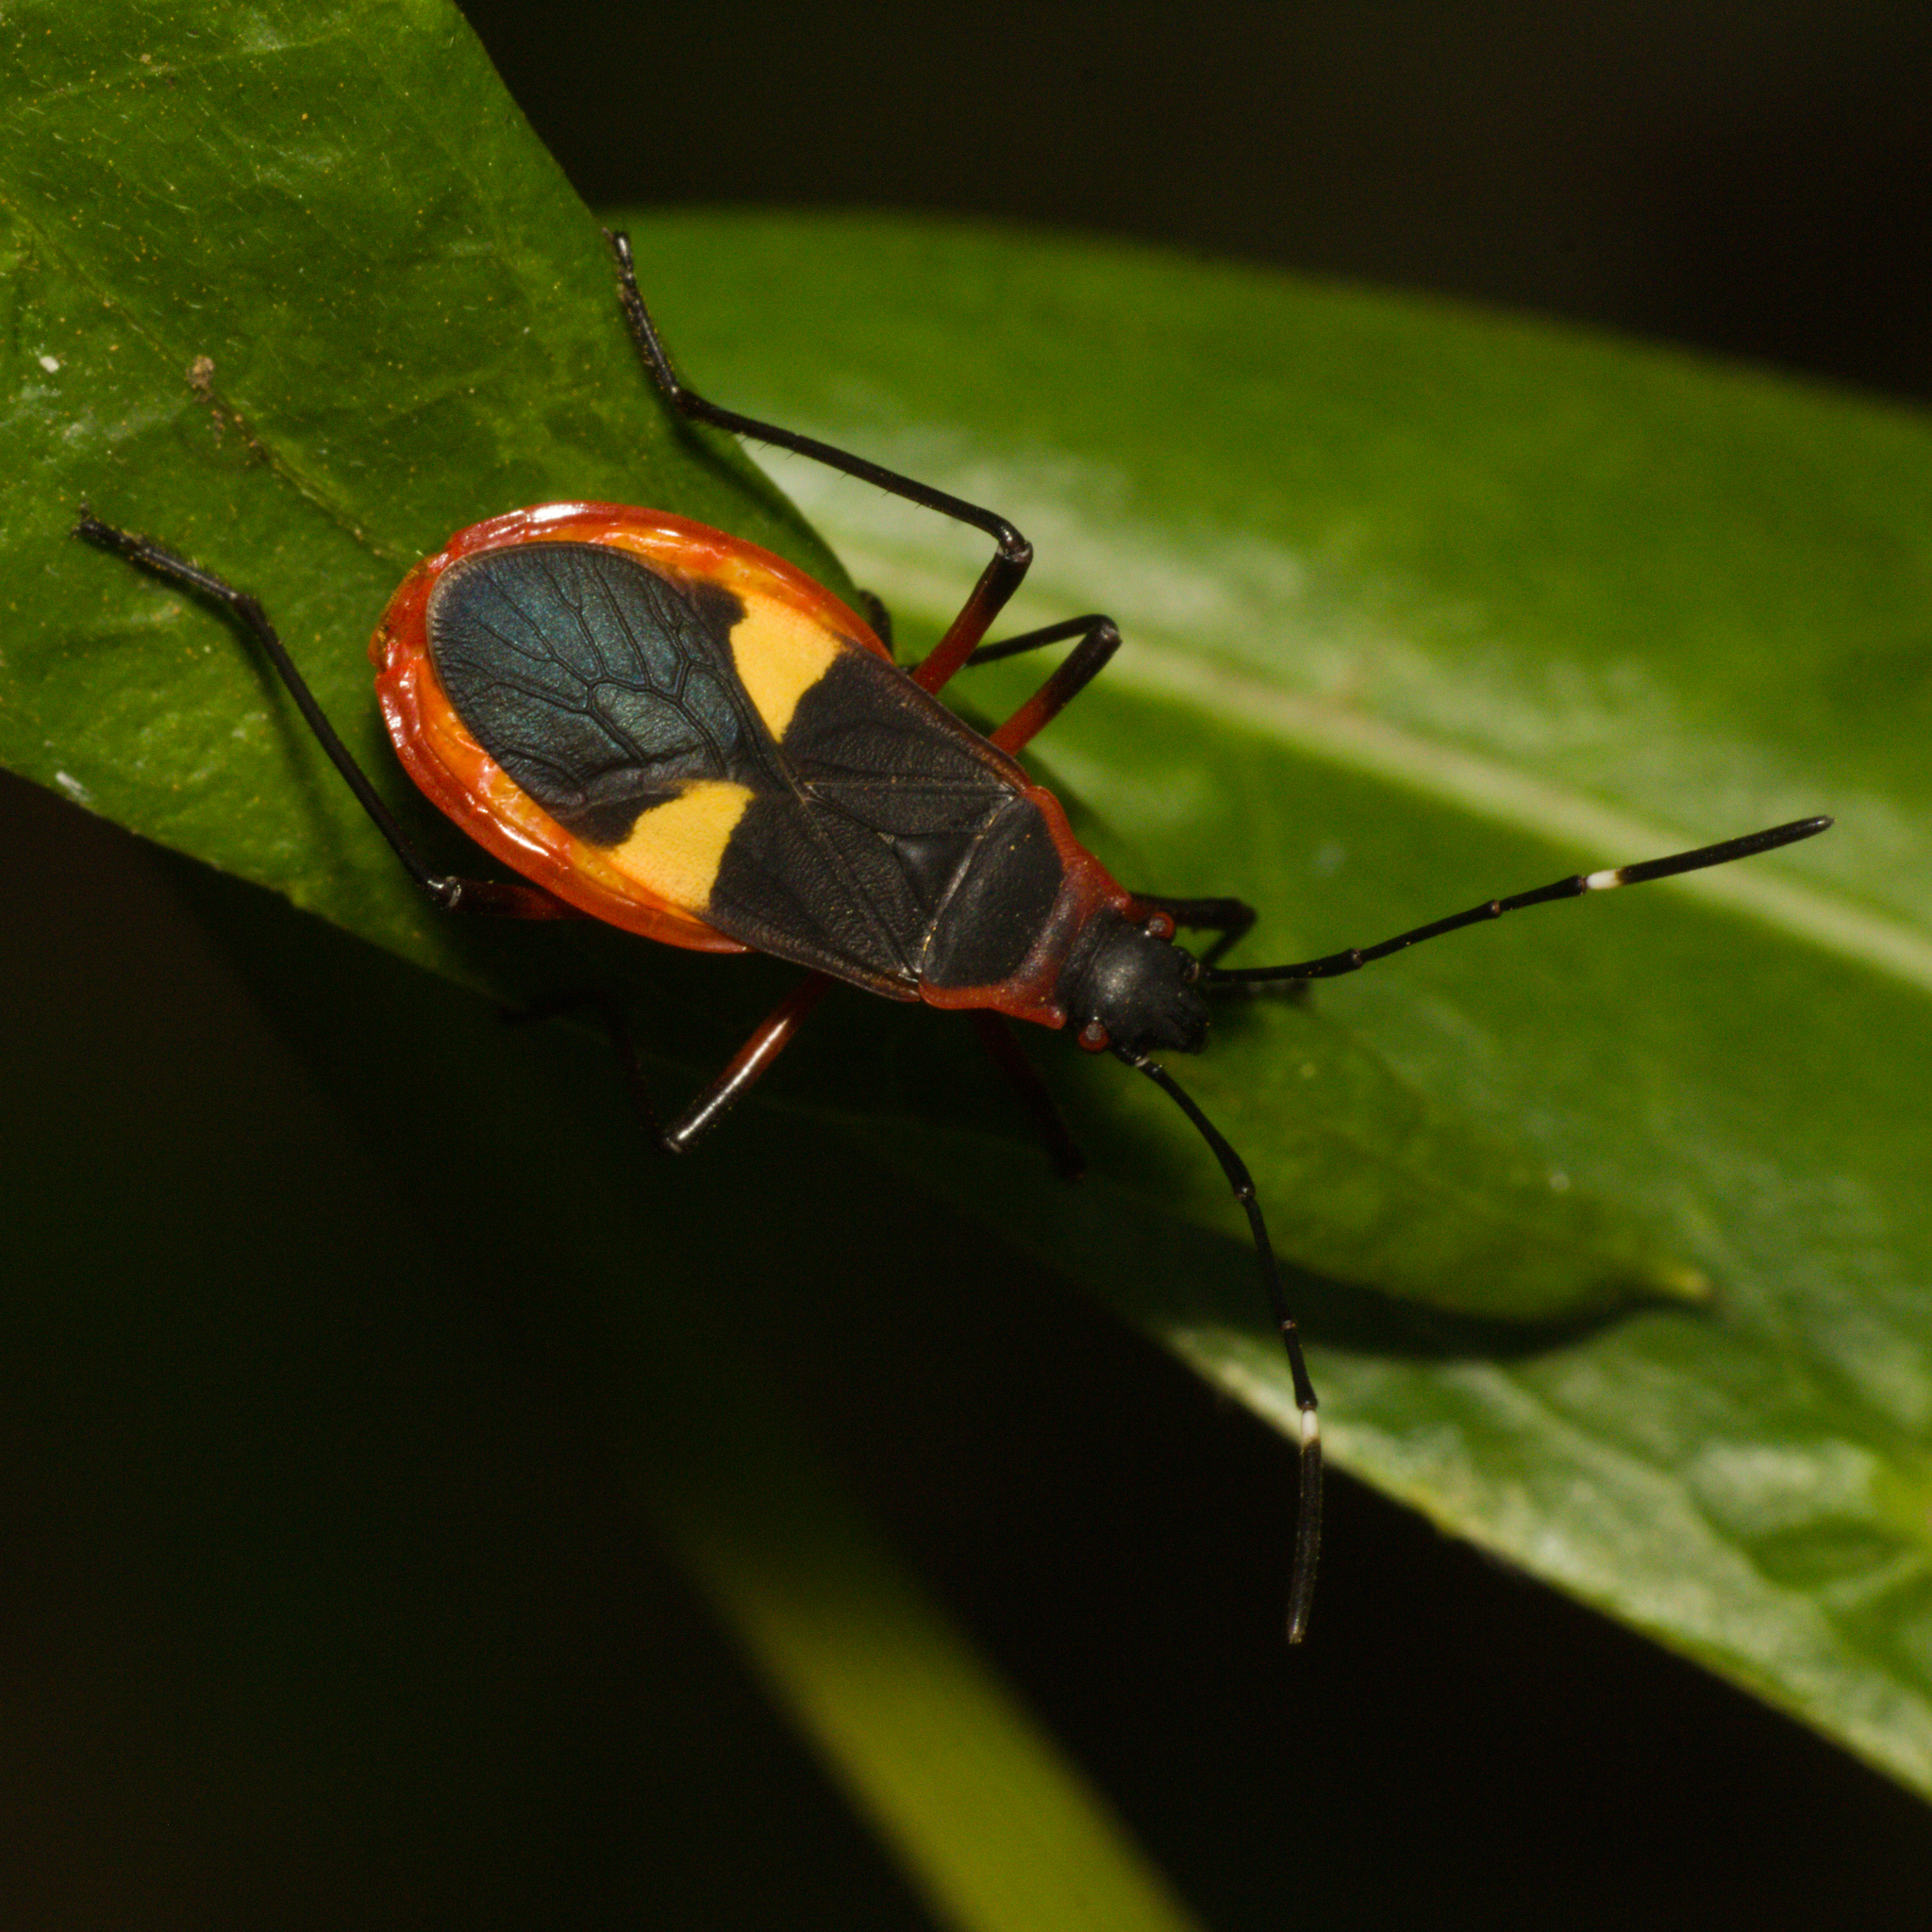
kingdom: Animalia
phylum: Arthropoda
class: Insecta
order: Hemiptera
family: Pyrrhocoridae
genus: Dysdercus
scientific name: Dysdercus albofasciatus
